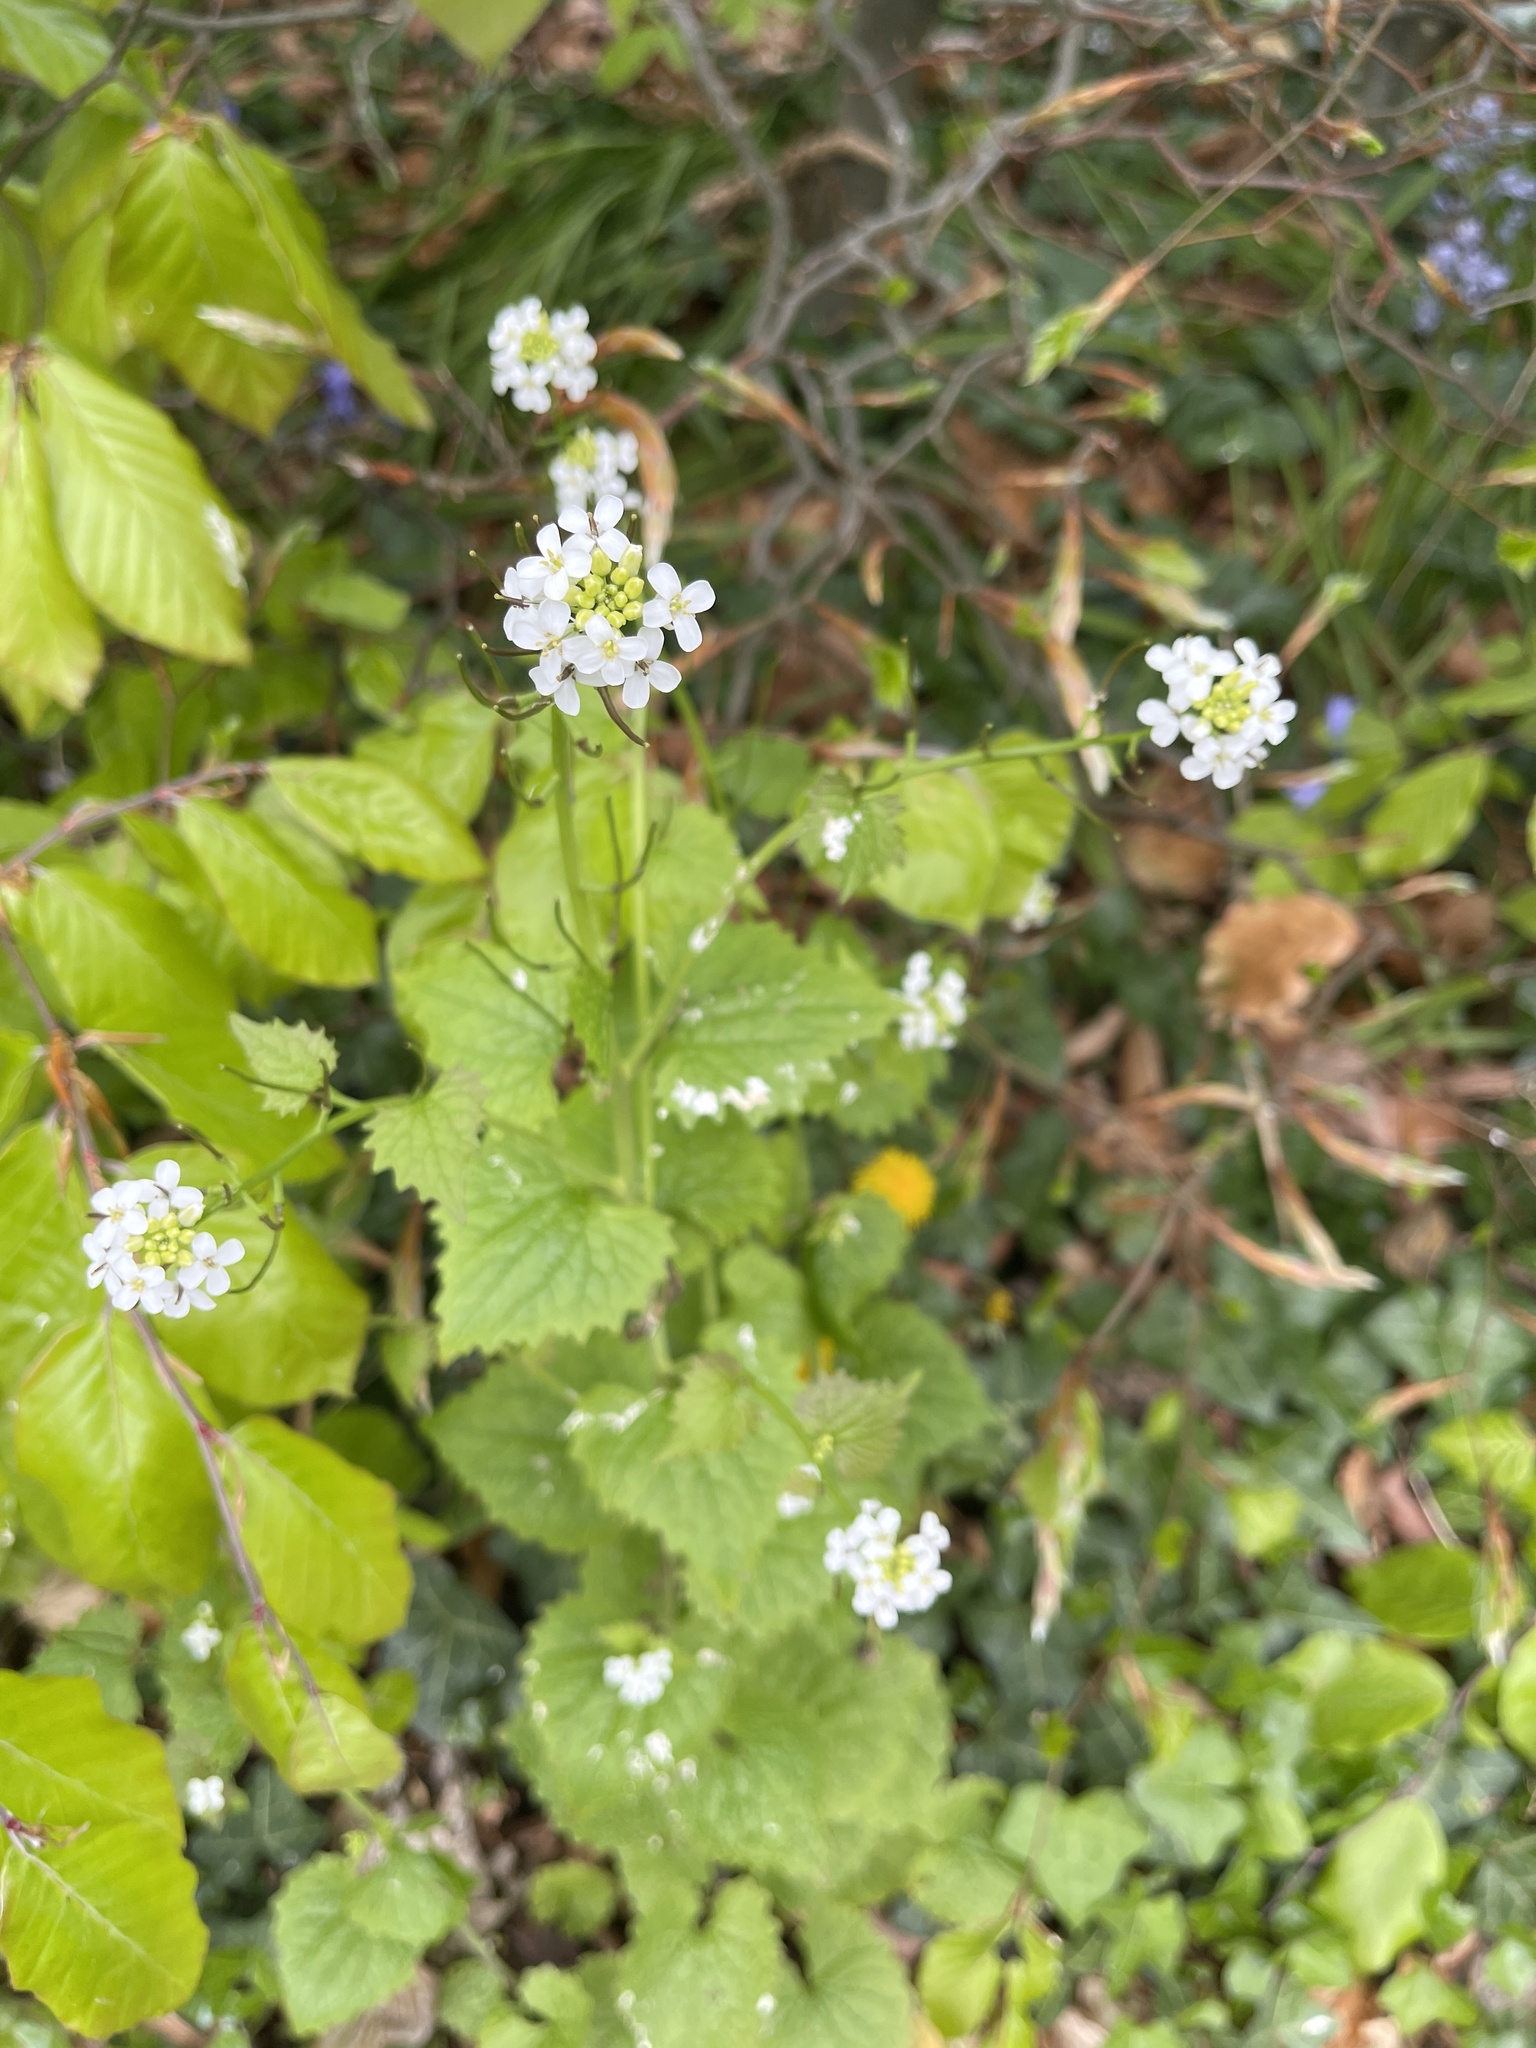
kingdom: Plantae
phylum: Tracheophyta
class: Magnoliopsida
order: Brassicales
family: Brassicaceae
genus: Alliaria
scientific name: Alliaria petiolata
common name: Garlic mustard
